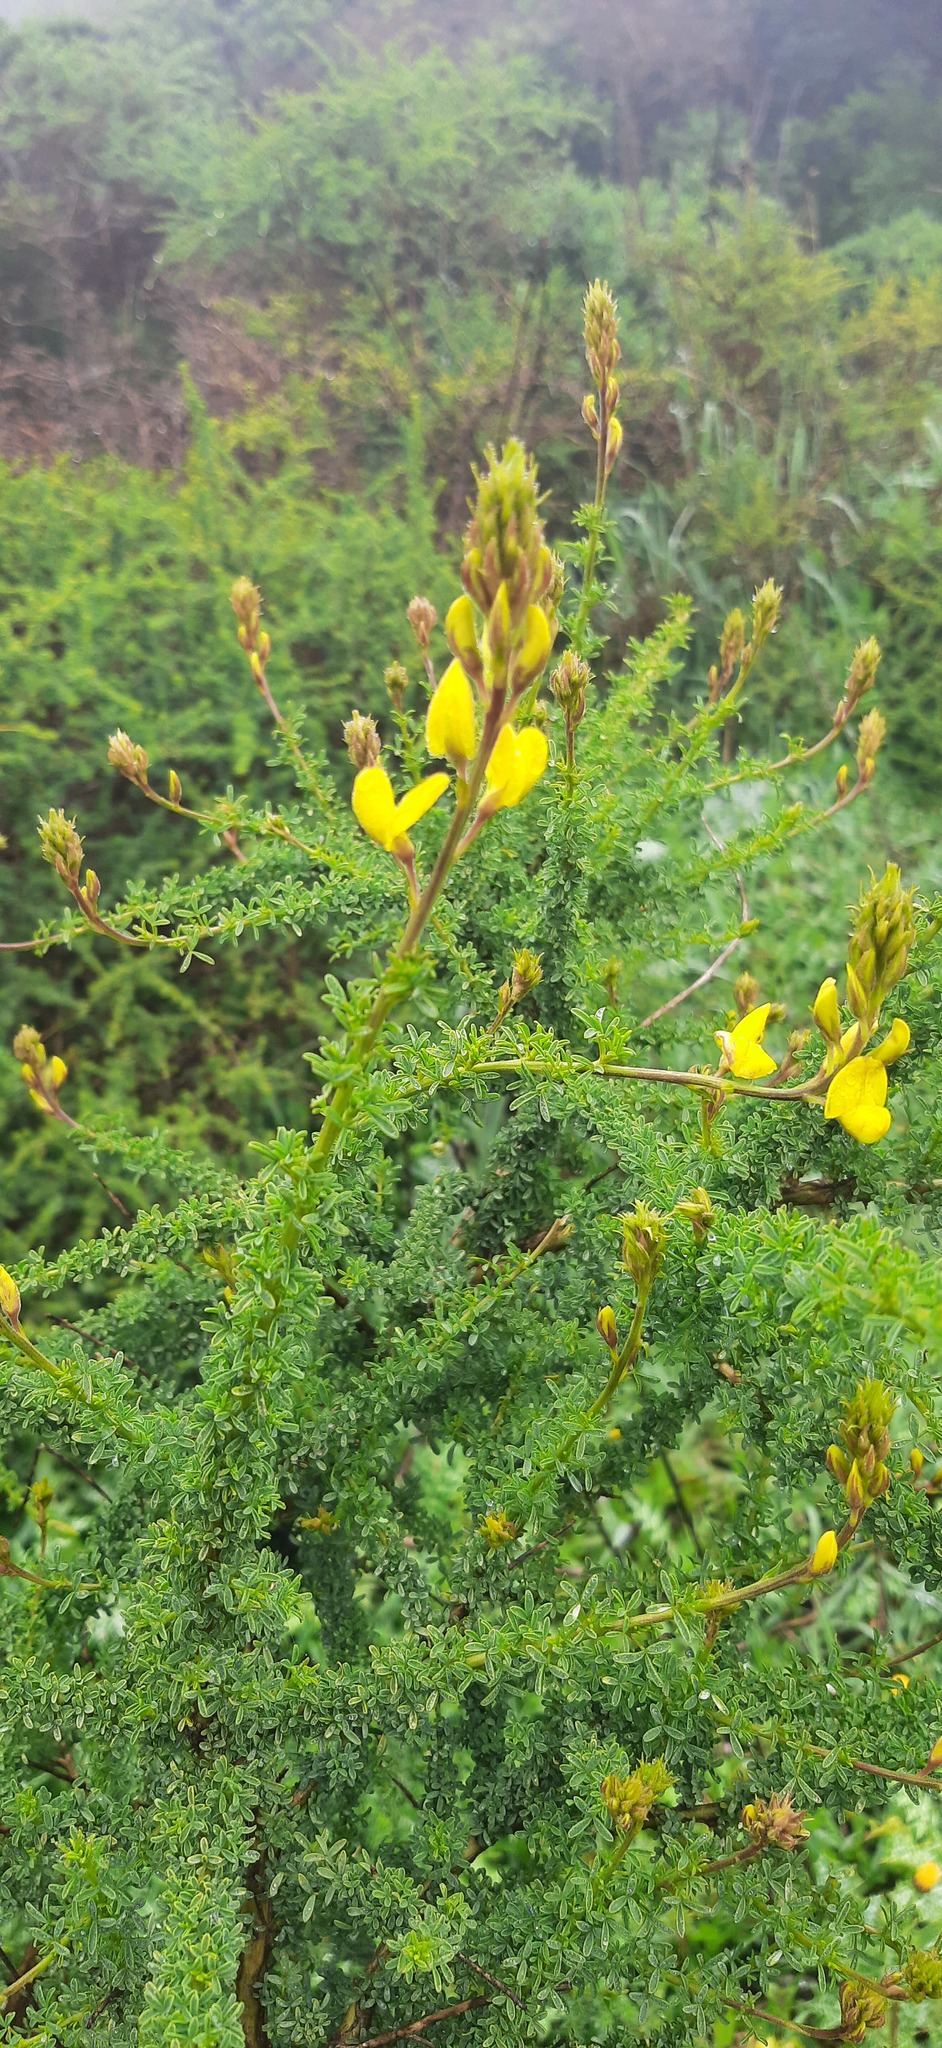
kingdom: Plantae
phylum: Tracheophyta
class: Magnoliopsida
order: Fabales
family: Fabaceae
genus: Adenocarpus
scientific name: Adenocarpus foliolosus
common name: Canary island flatpod
